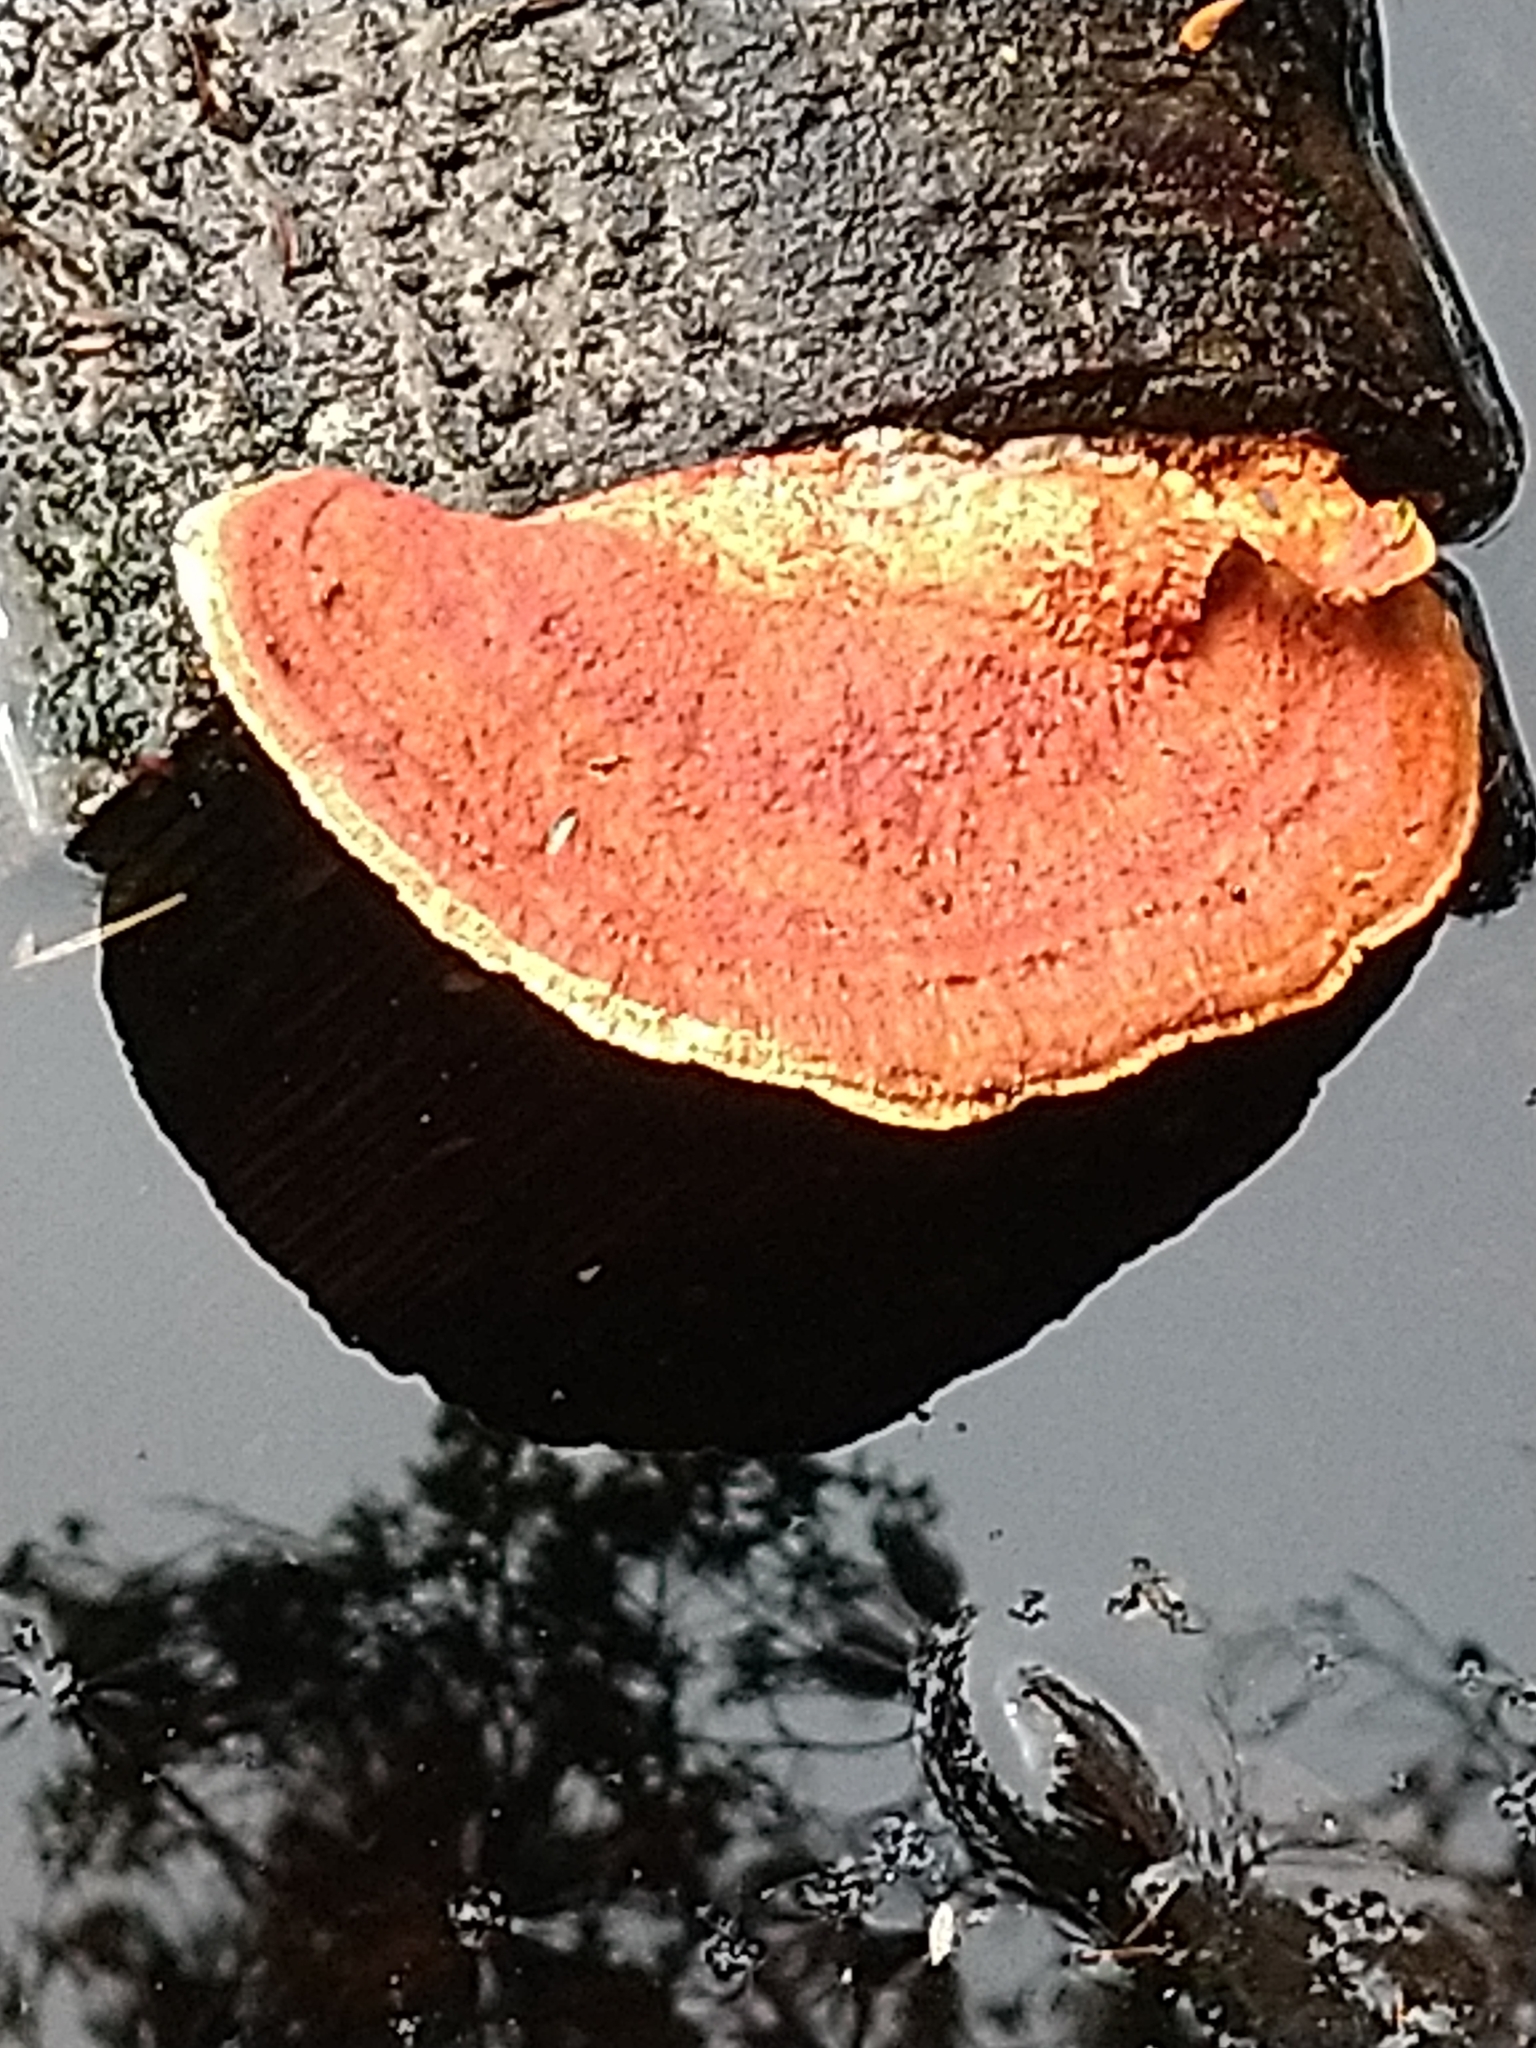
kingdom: Fungi
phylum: Basidiomycota
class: Agaricomycetes
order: Polyporales
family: Polyporaceae
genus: Trametes
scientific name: Trametes coccinea
